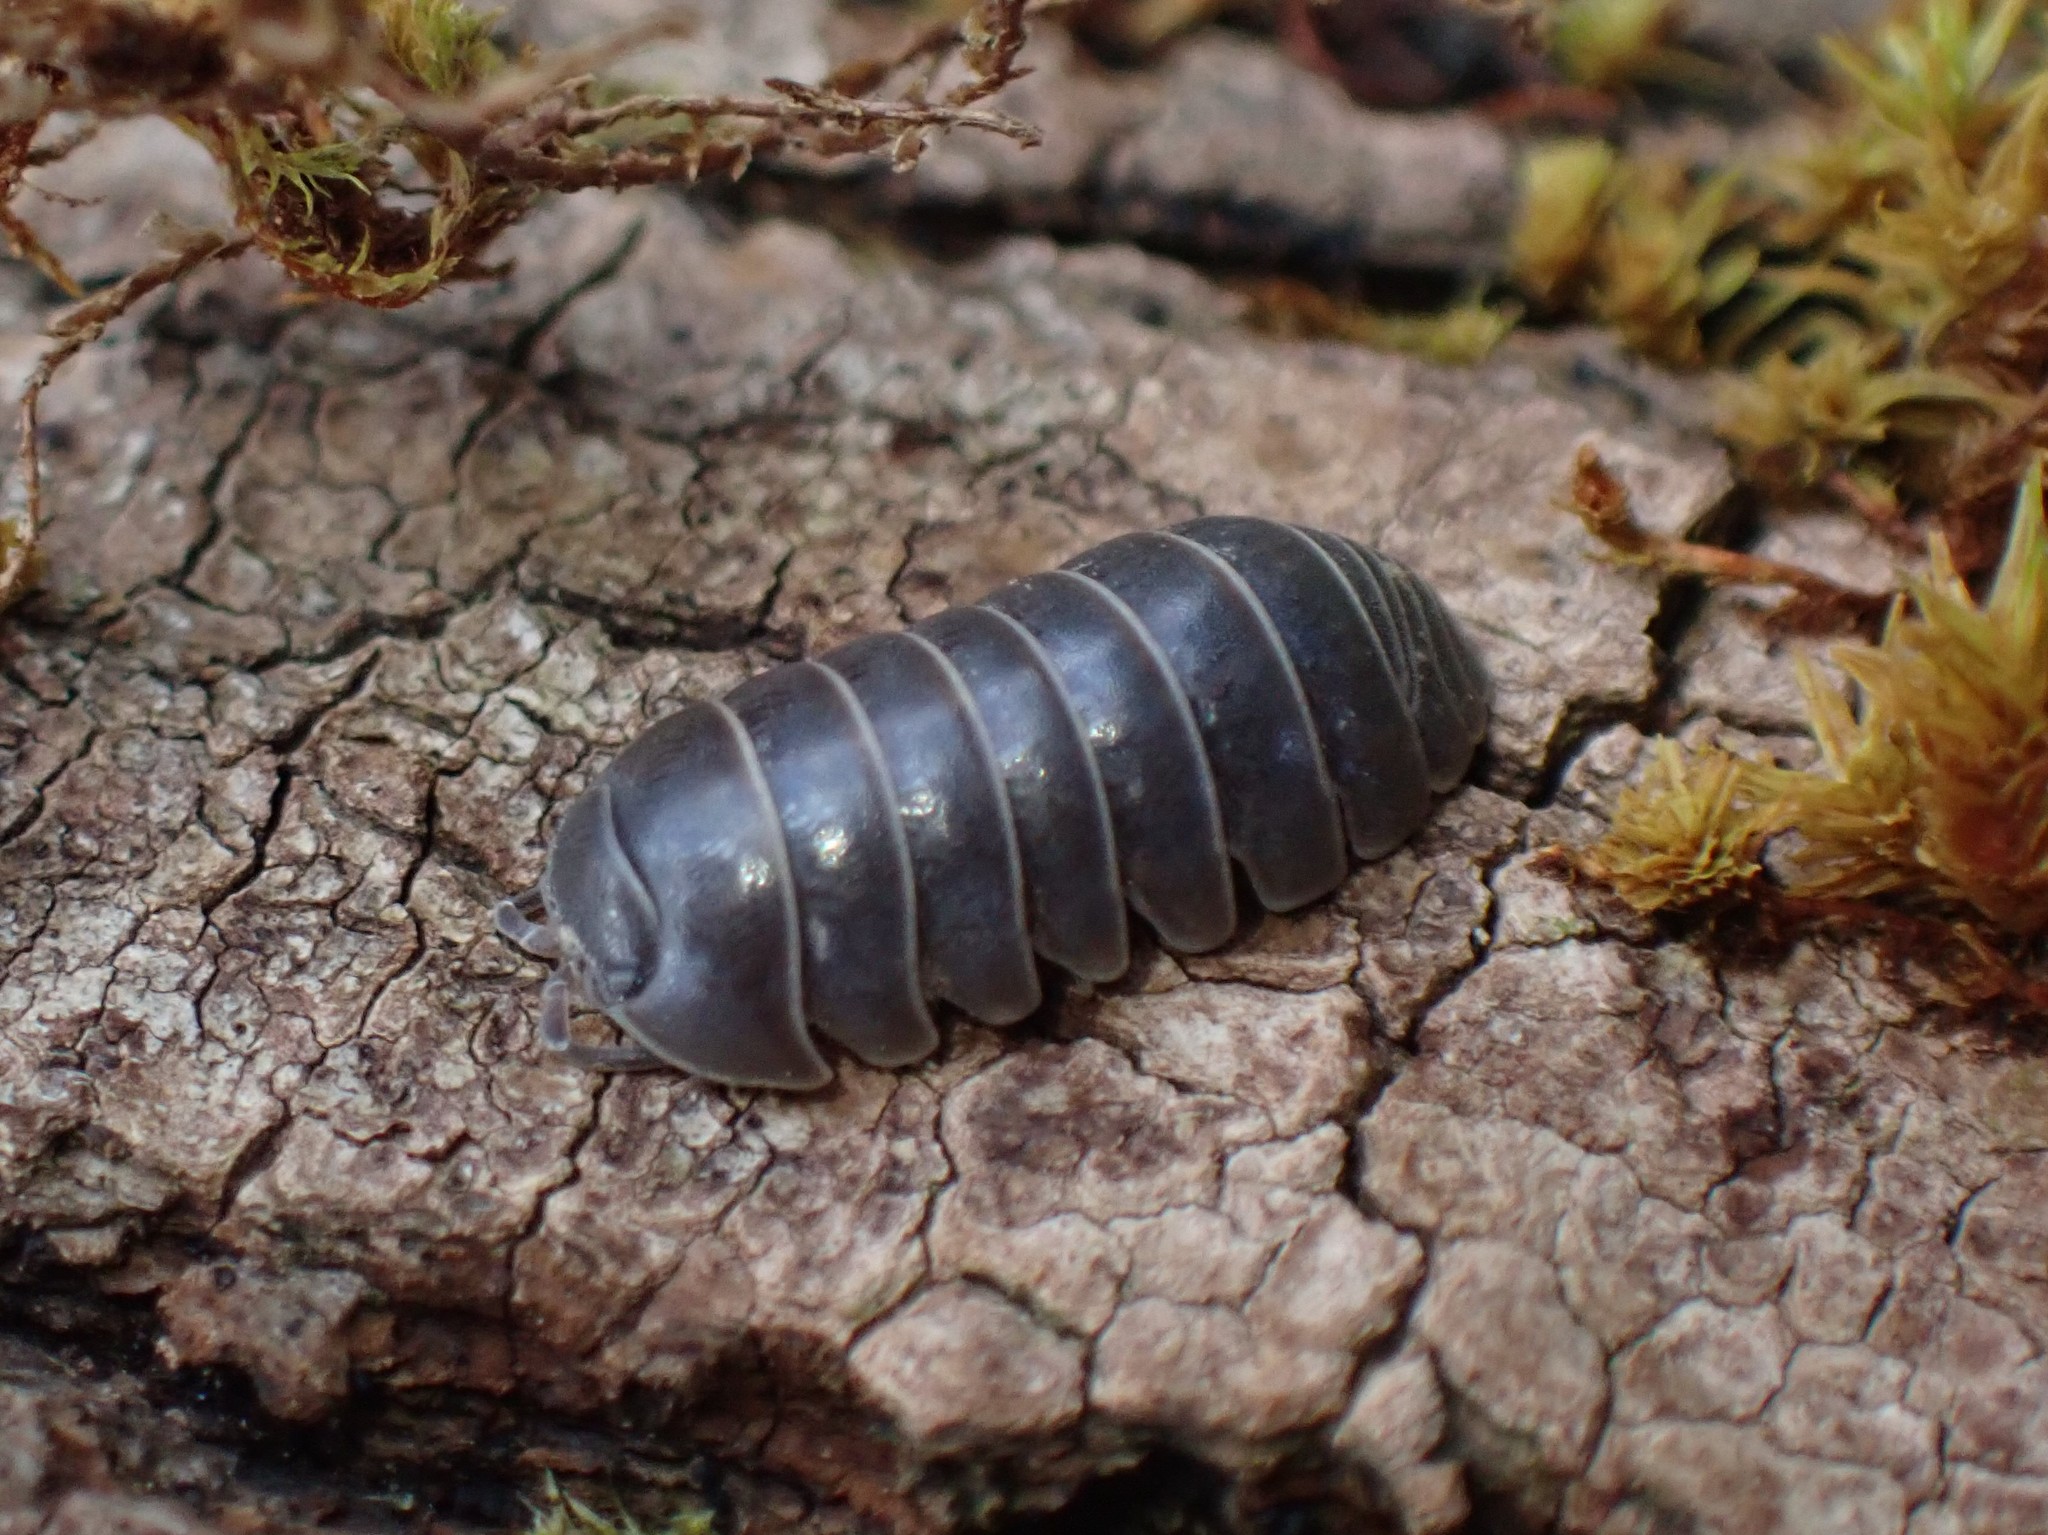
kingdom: Animalia
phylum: Arthropoda
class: Malacostraca
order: Isopoda
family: Armadillidiidae
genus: Armadillidium
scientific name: Armadillidium vulgare
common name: Common pill woodlouse
